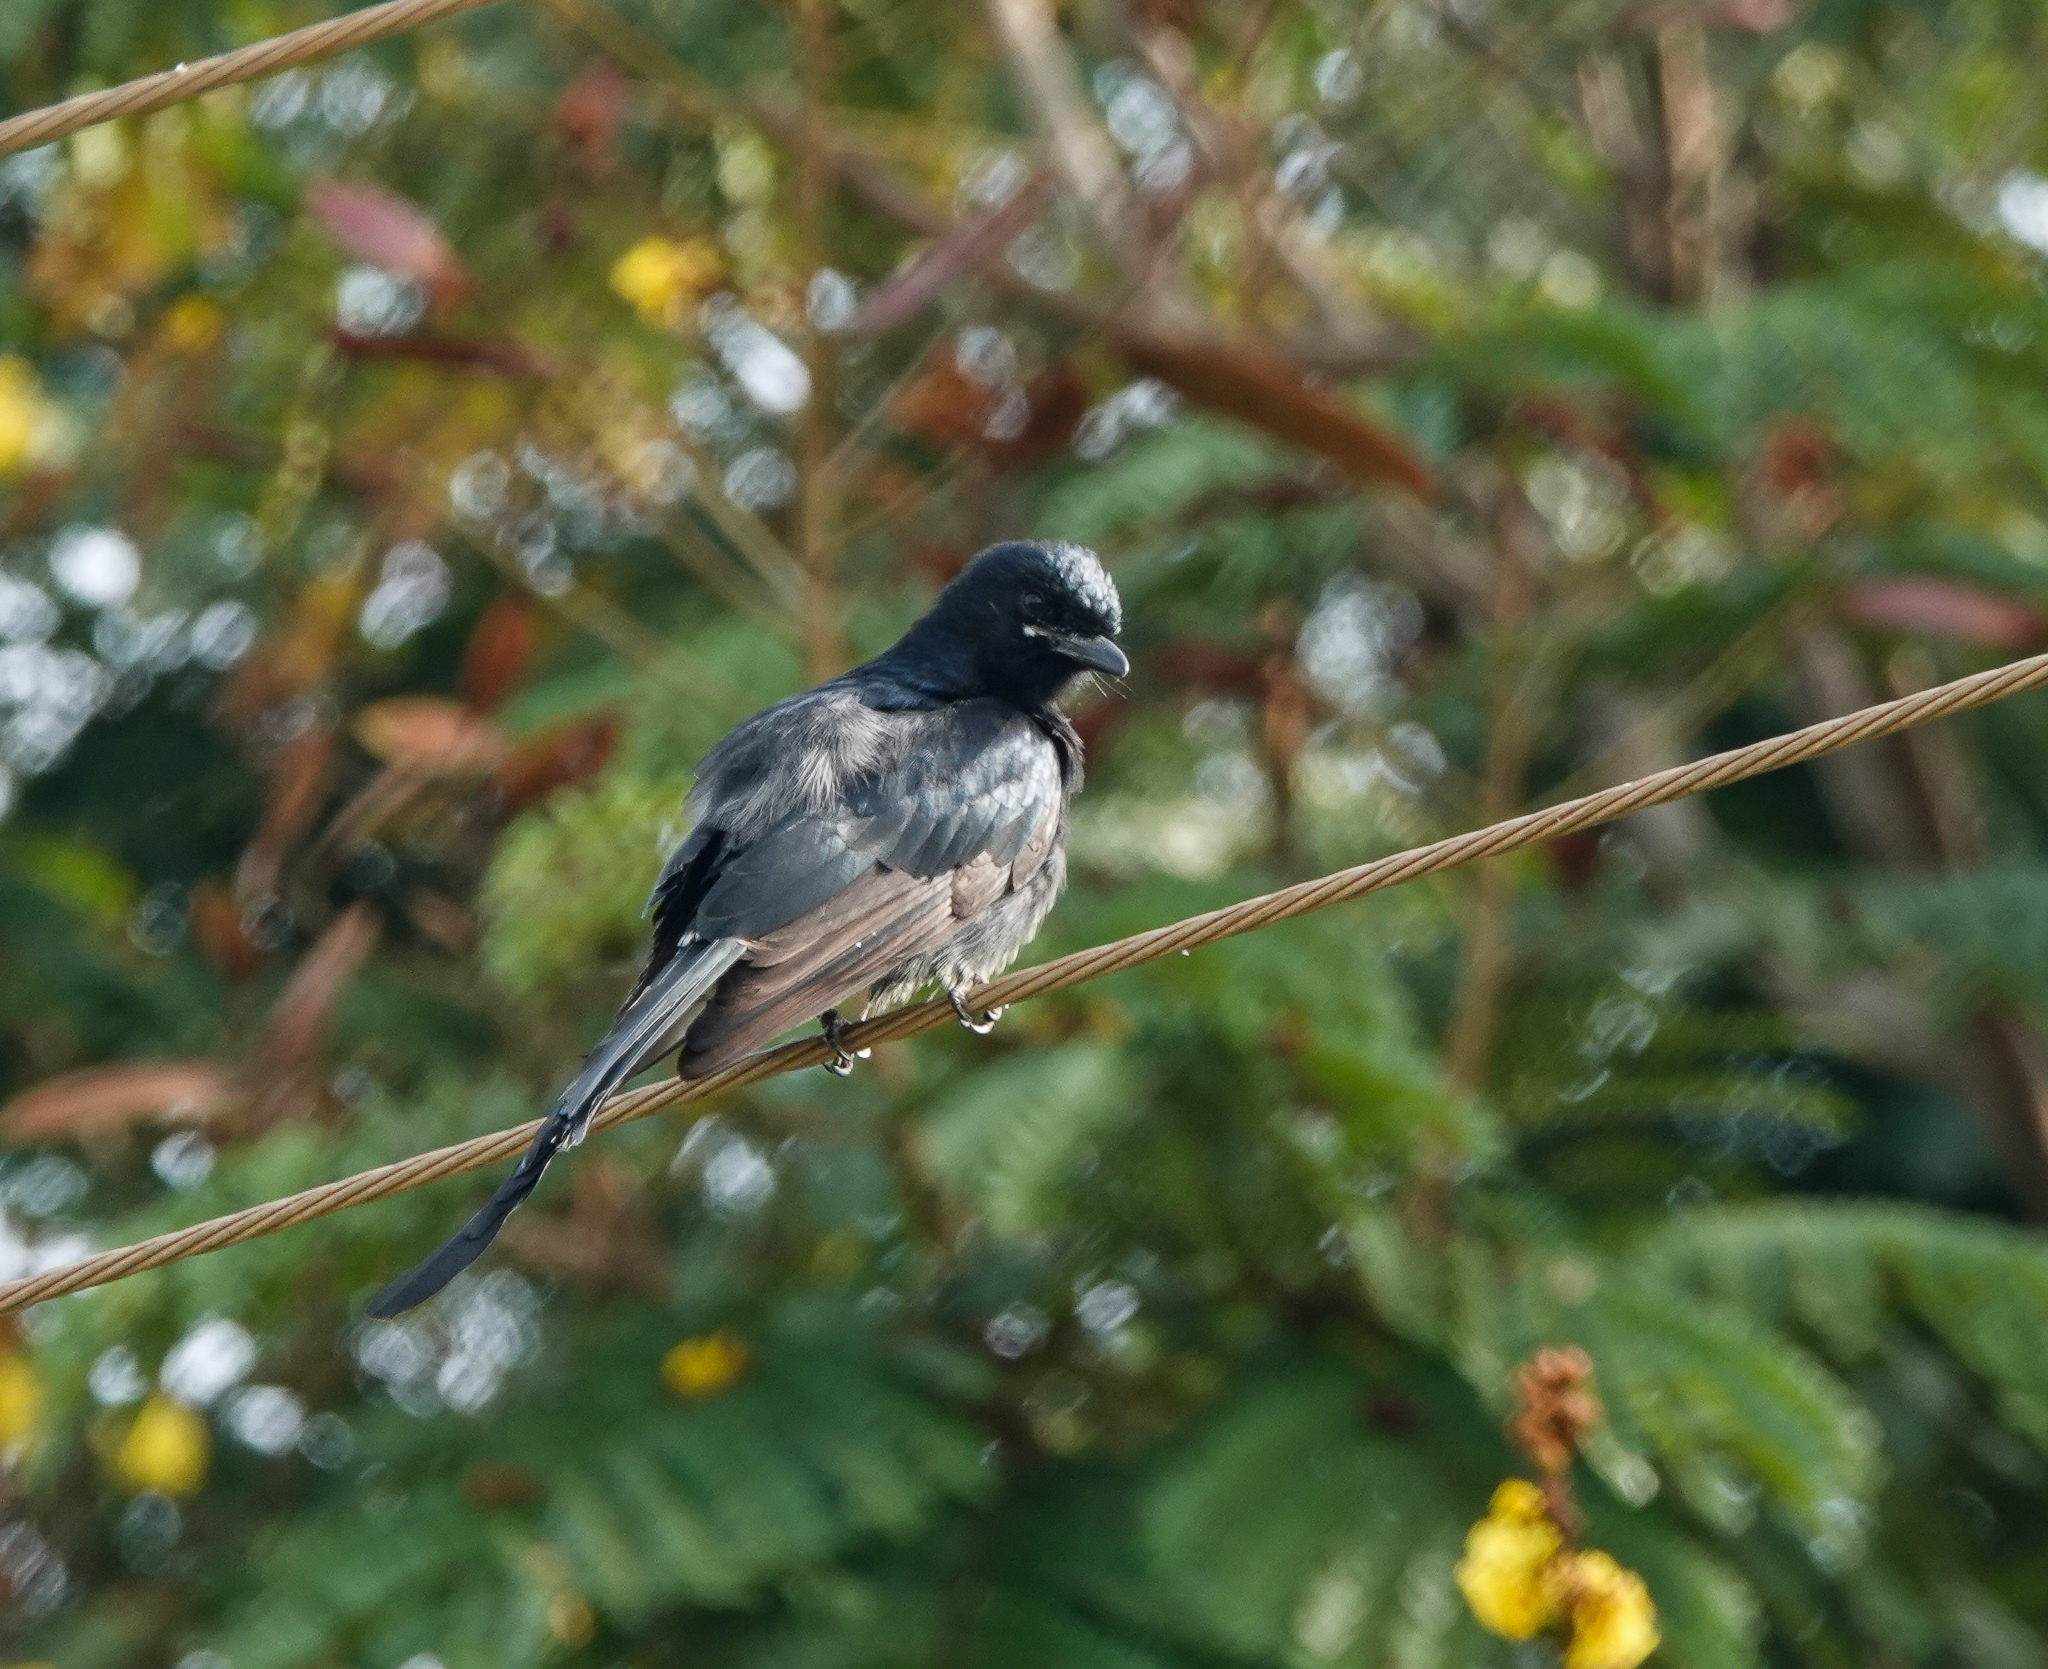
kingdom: Animalia
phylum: Chordata
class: Aves
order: Passeriformes
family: Dicruridae
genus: Dicrurus
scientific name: Dicrurus macrocercus
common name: Black drongo
